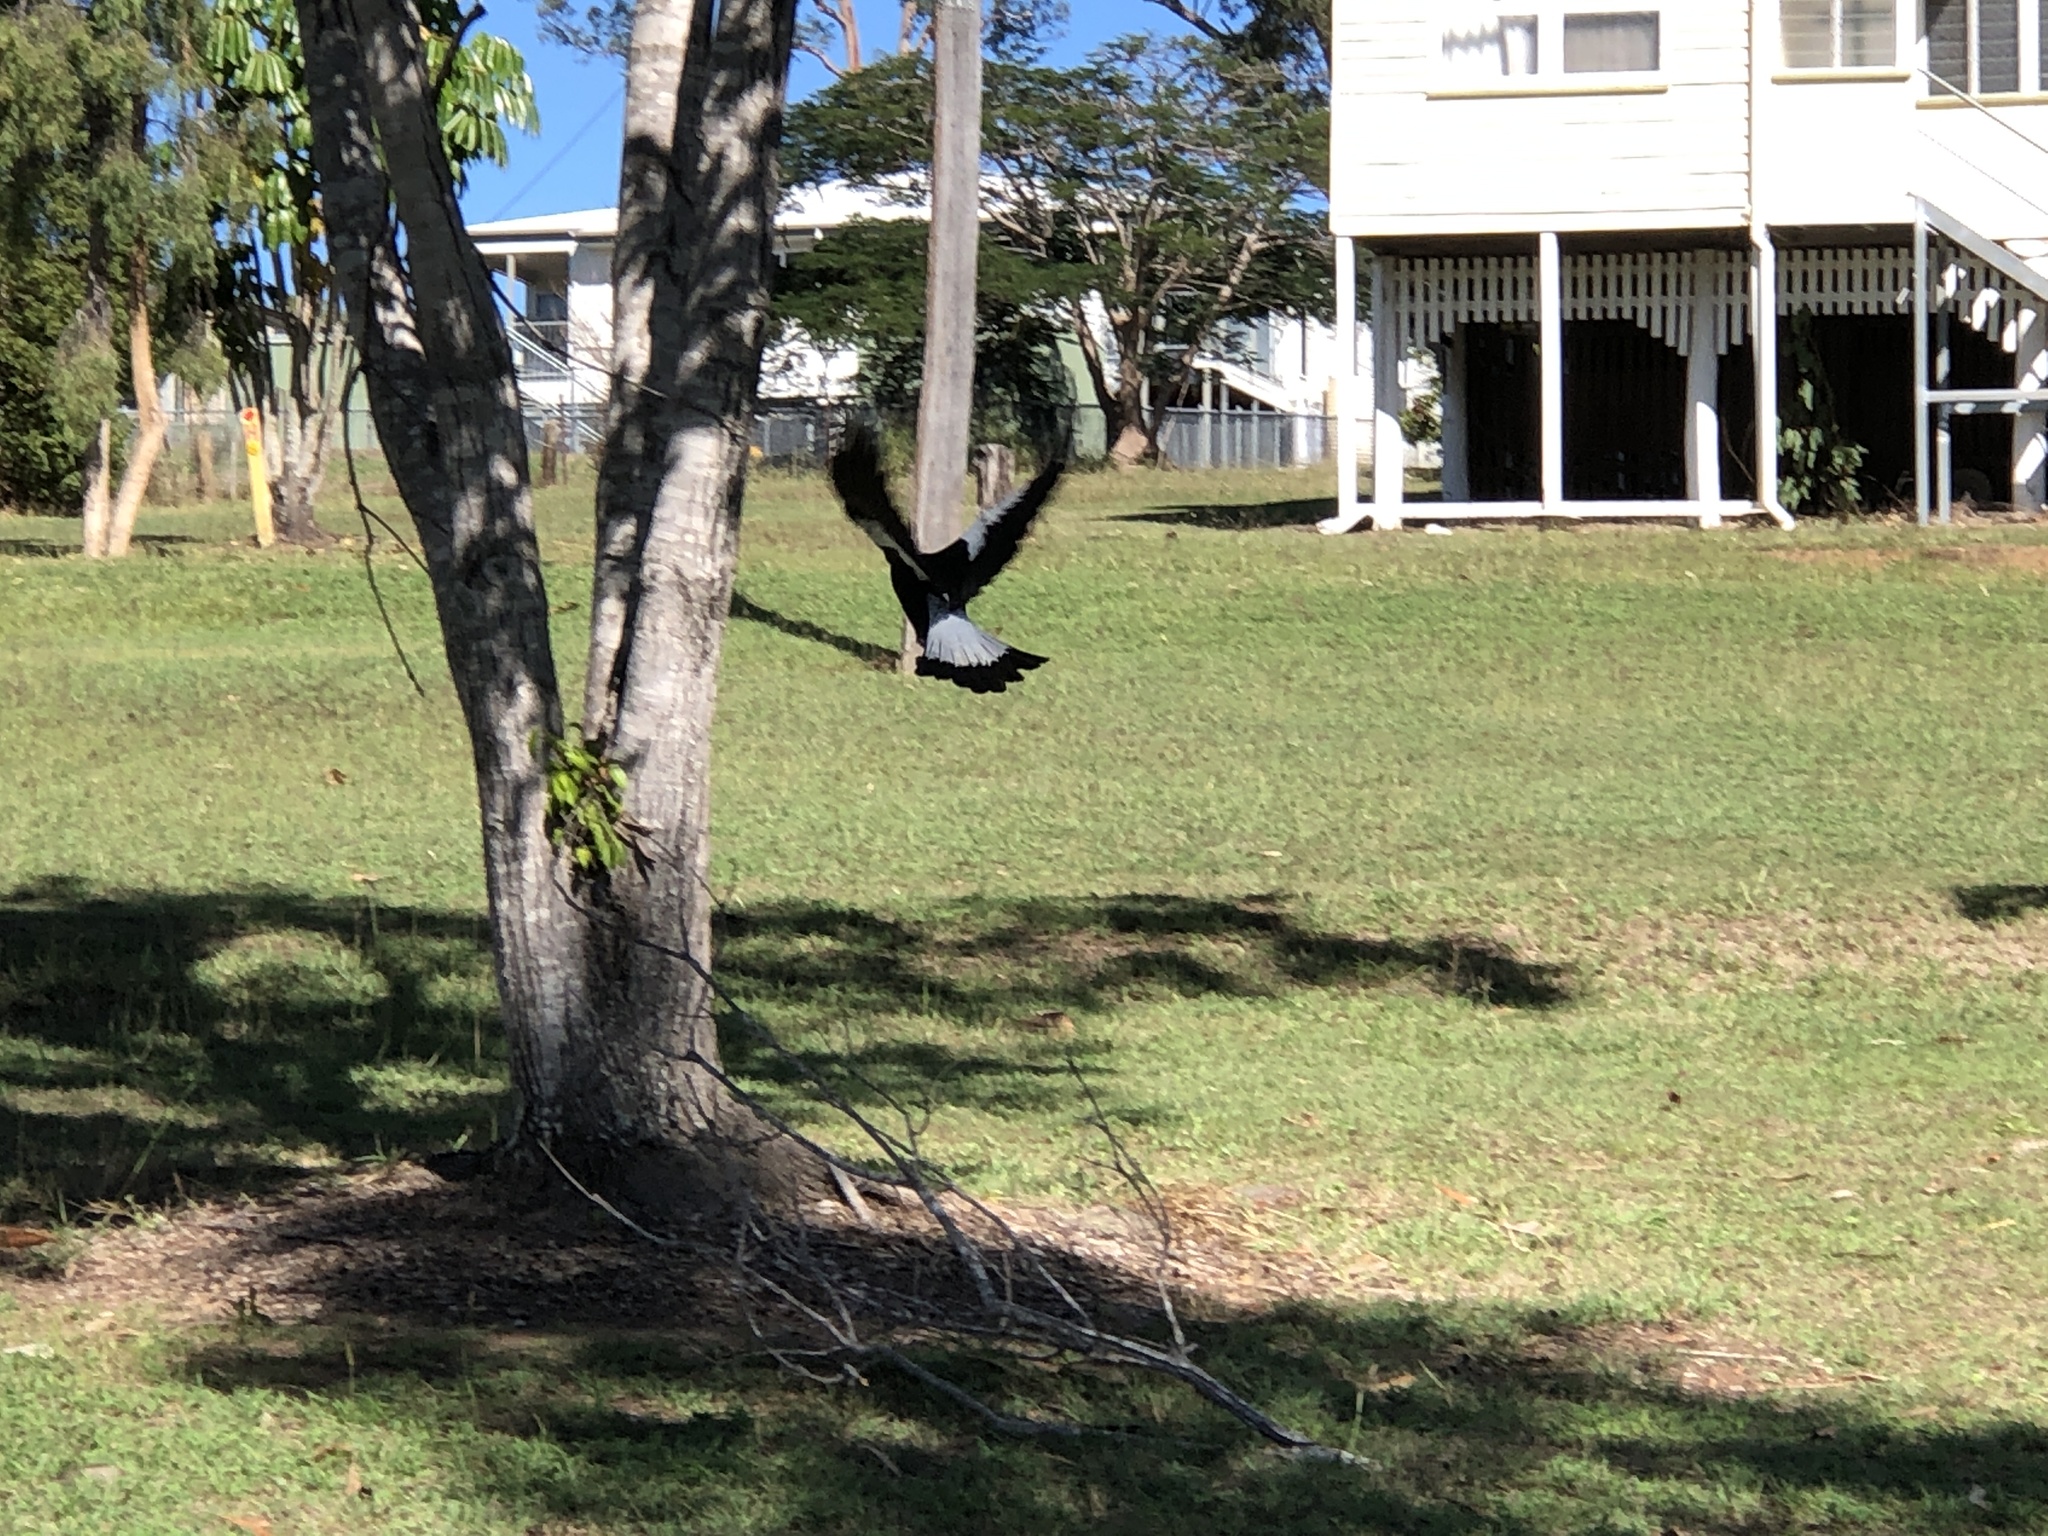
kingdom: Animalia
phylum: Chordata
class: Aves
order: Passeriformes
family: Cracticidae
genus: Gymnorhina
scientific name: Gymnorhina tibicen
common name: Australian magpie
